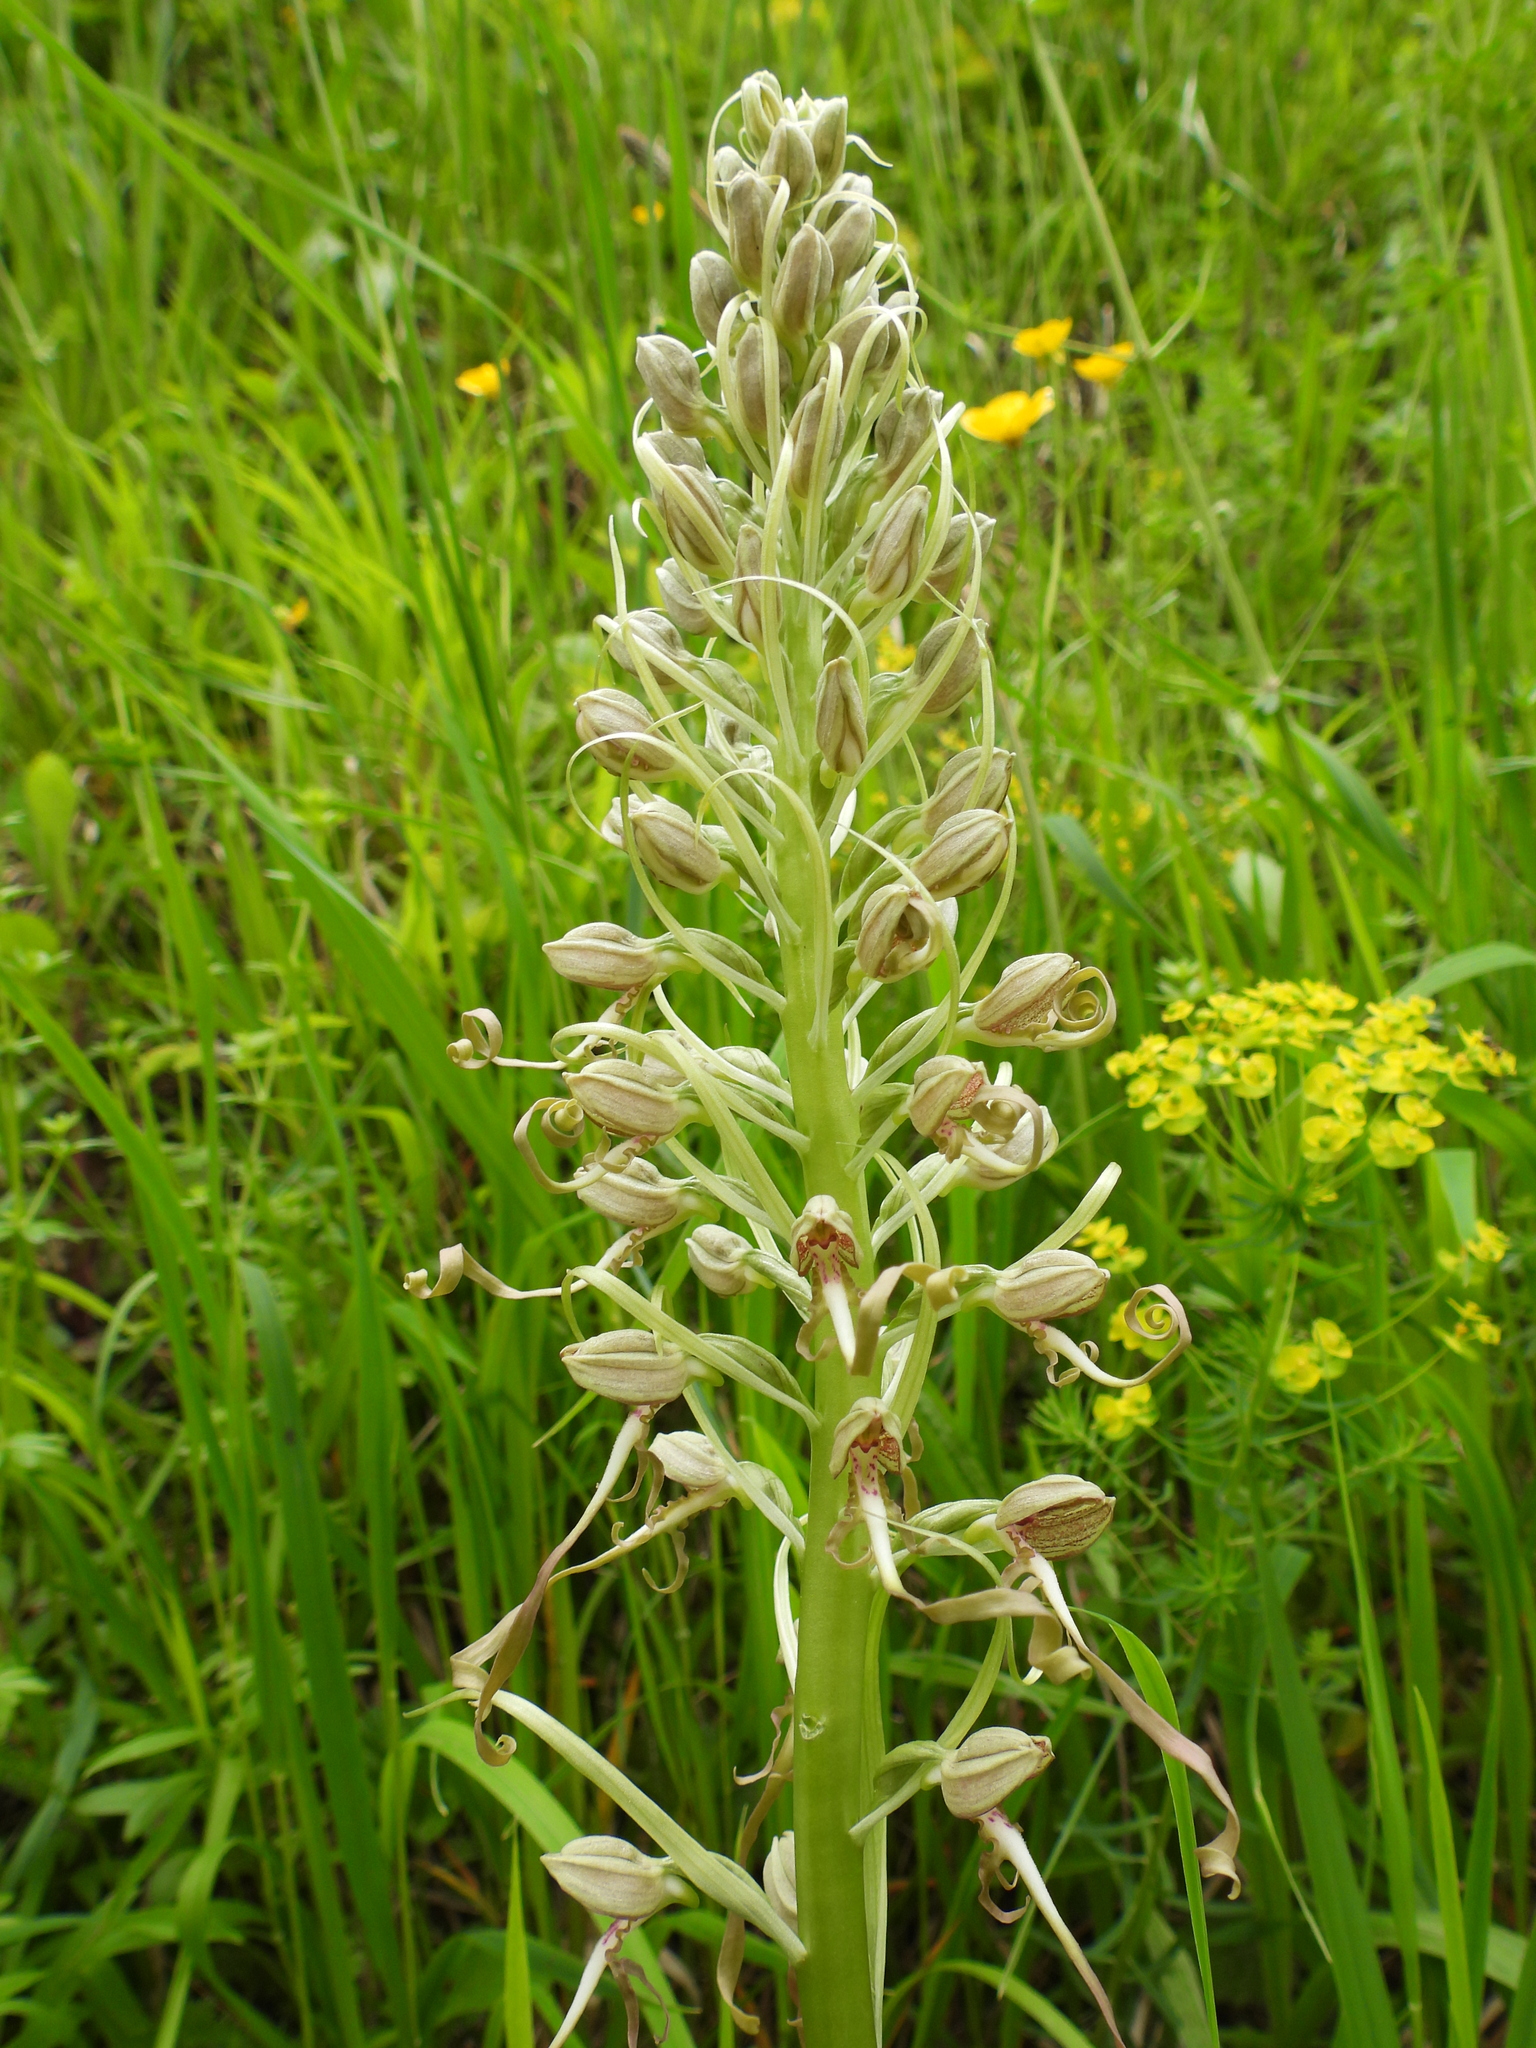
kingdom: Plantae
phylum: Tracheophyta
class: Liliopsida
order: Asparagales
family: Orchidaceae
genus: Himantoglossum
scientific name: Himantoglossum hircinum
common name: Lizard orchid
